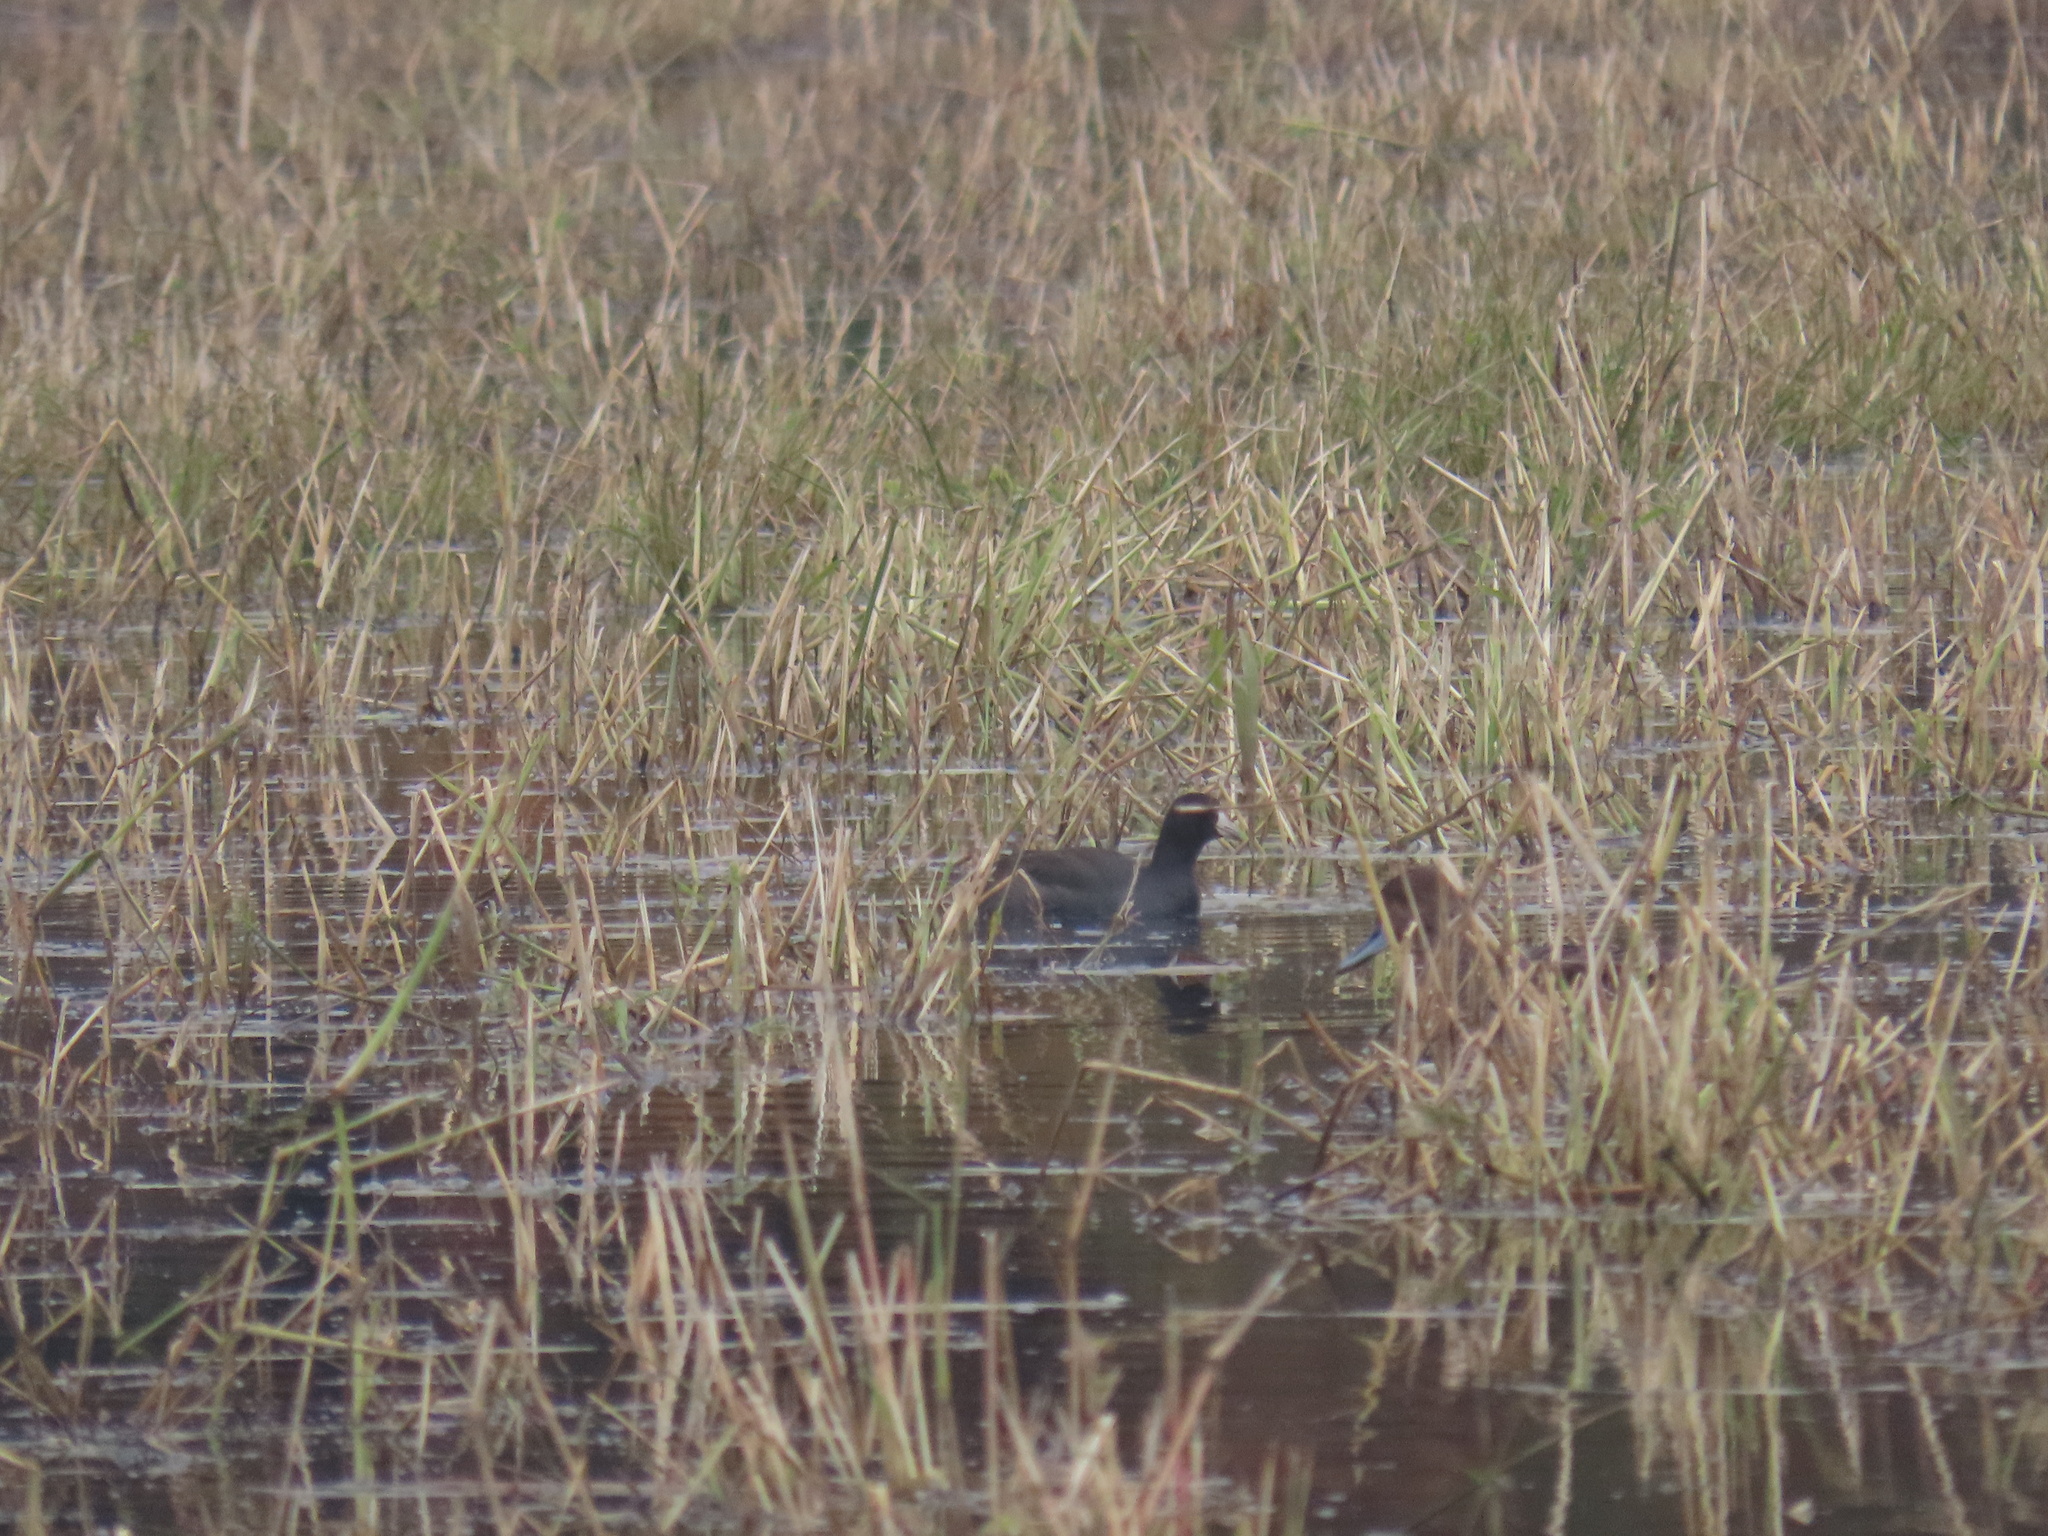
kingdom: Animalia
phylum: Chordata
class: Aves
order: Gruiformes
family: Rallidae
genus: Fulica
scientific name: Fulica americana
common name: American coot
